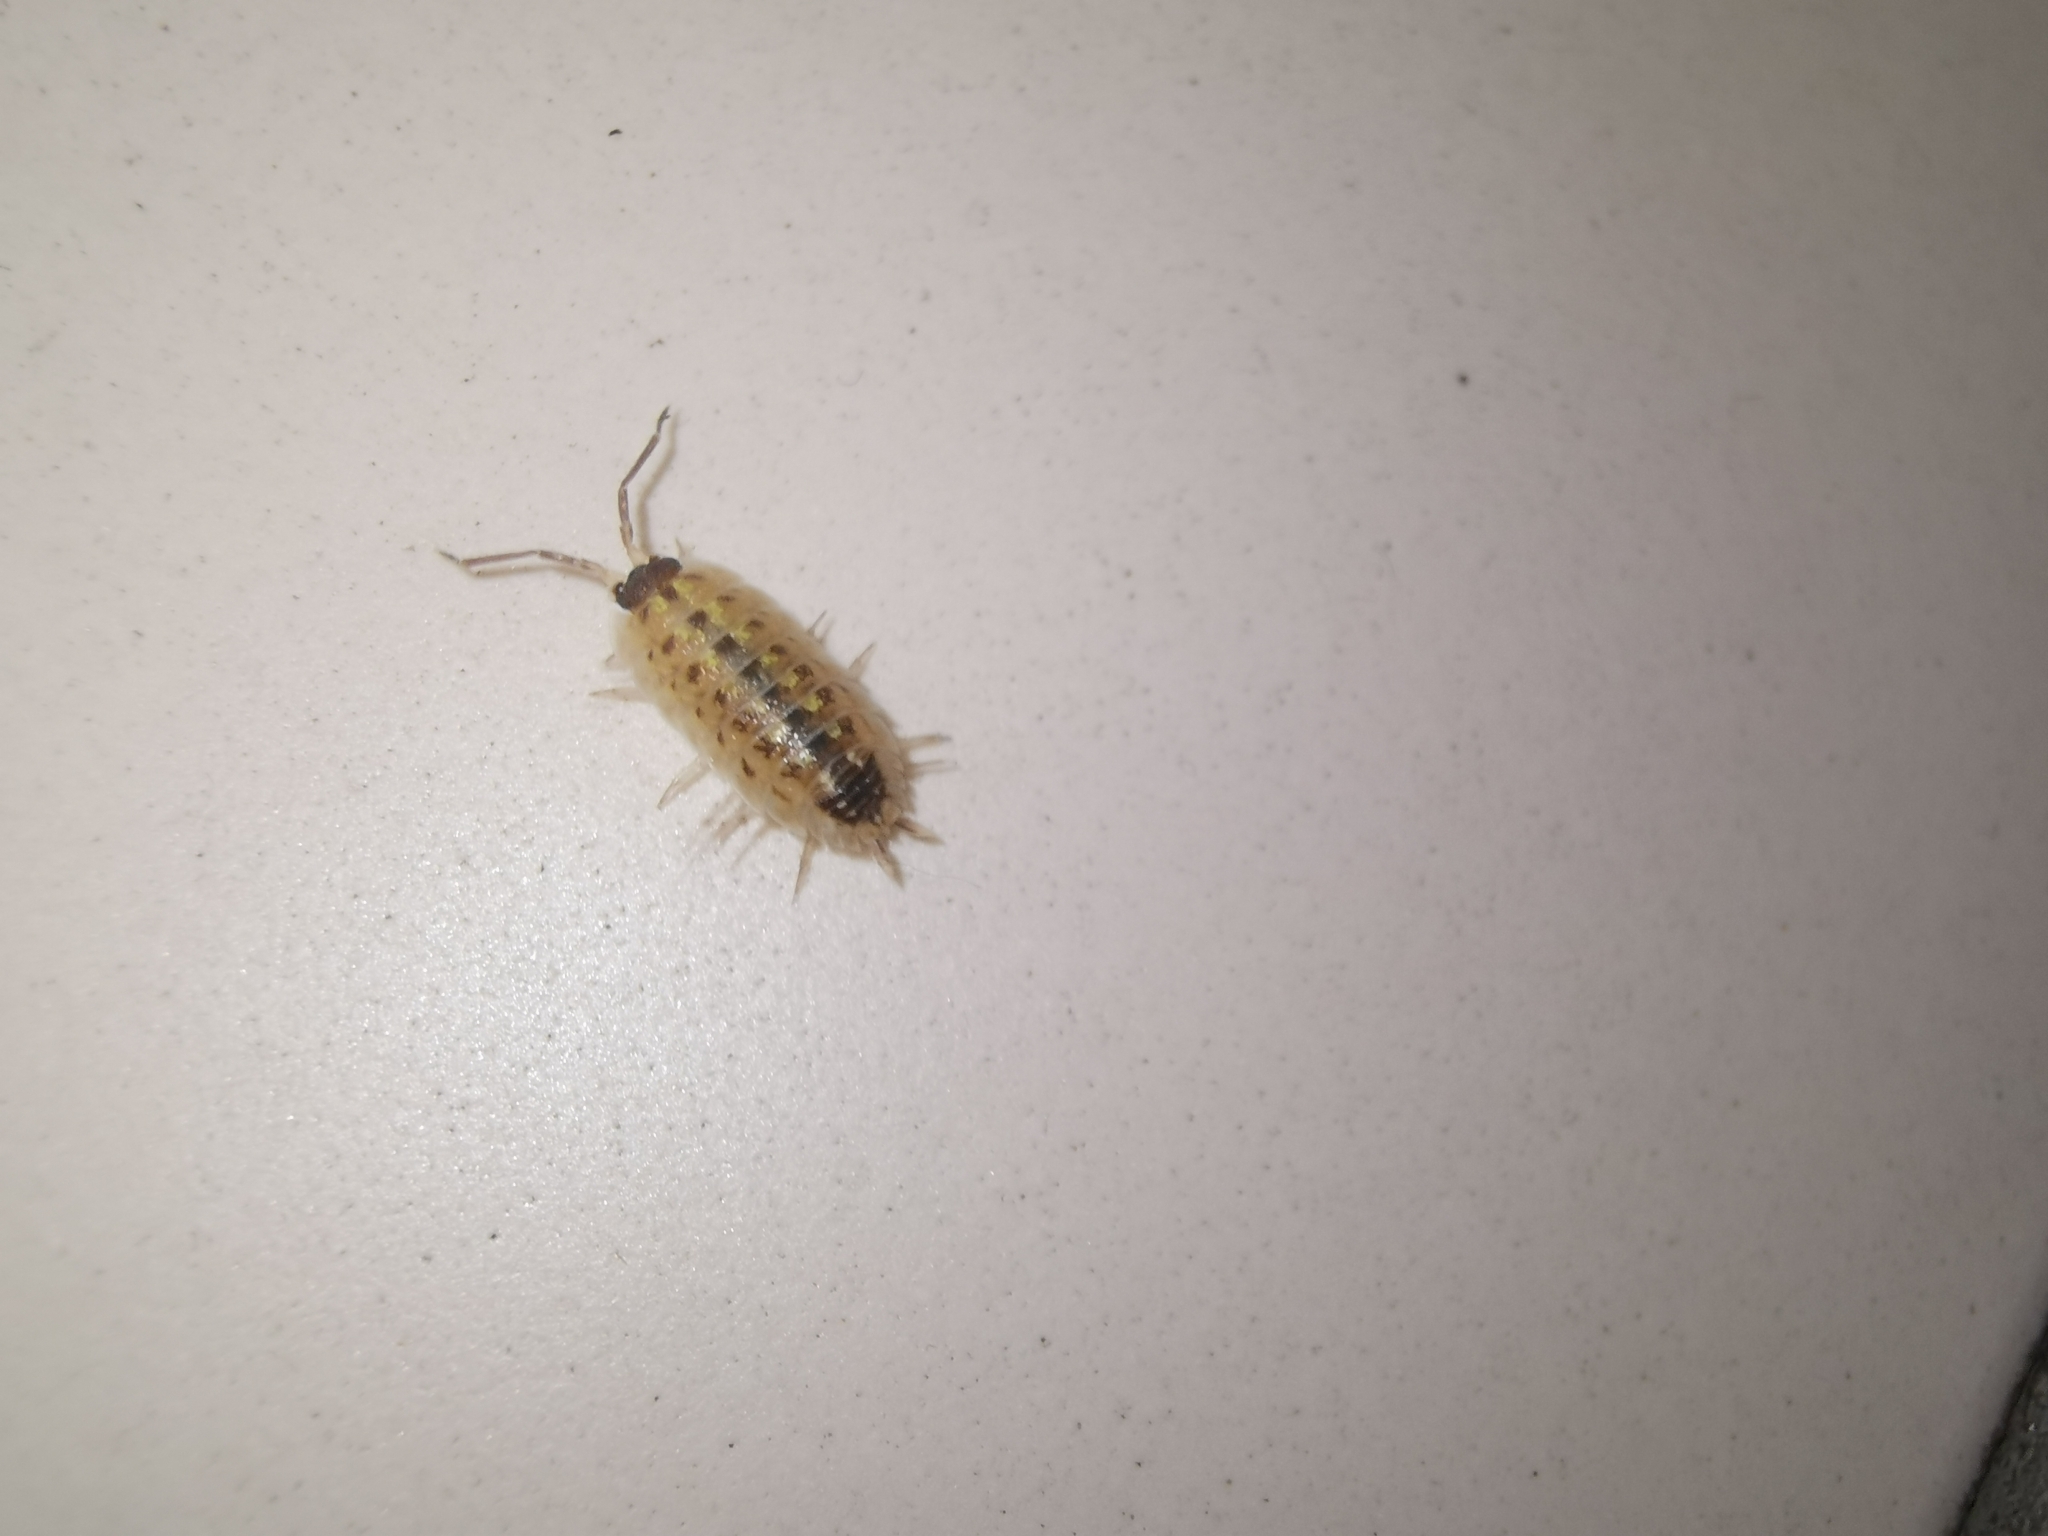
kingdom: Animalia
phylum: Arthropoda
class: Malacostraca
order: Isopoda
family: Porcellionidae
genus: Porcellio
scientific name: Porcellio spinicornis
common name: Painted woodlouse
